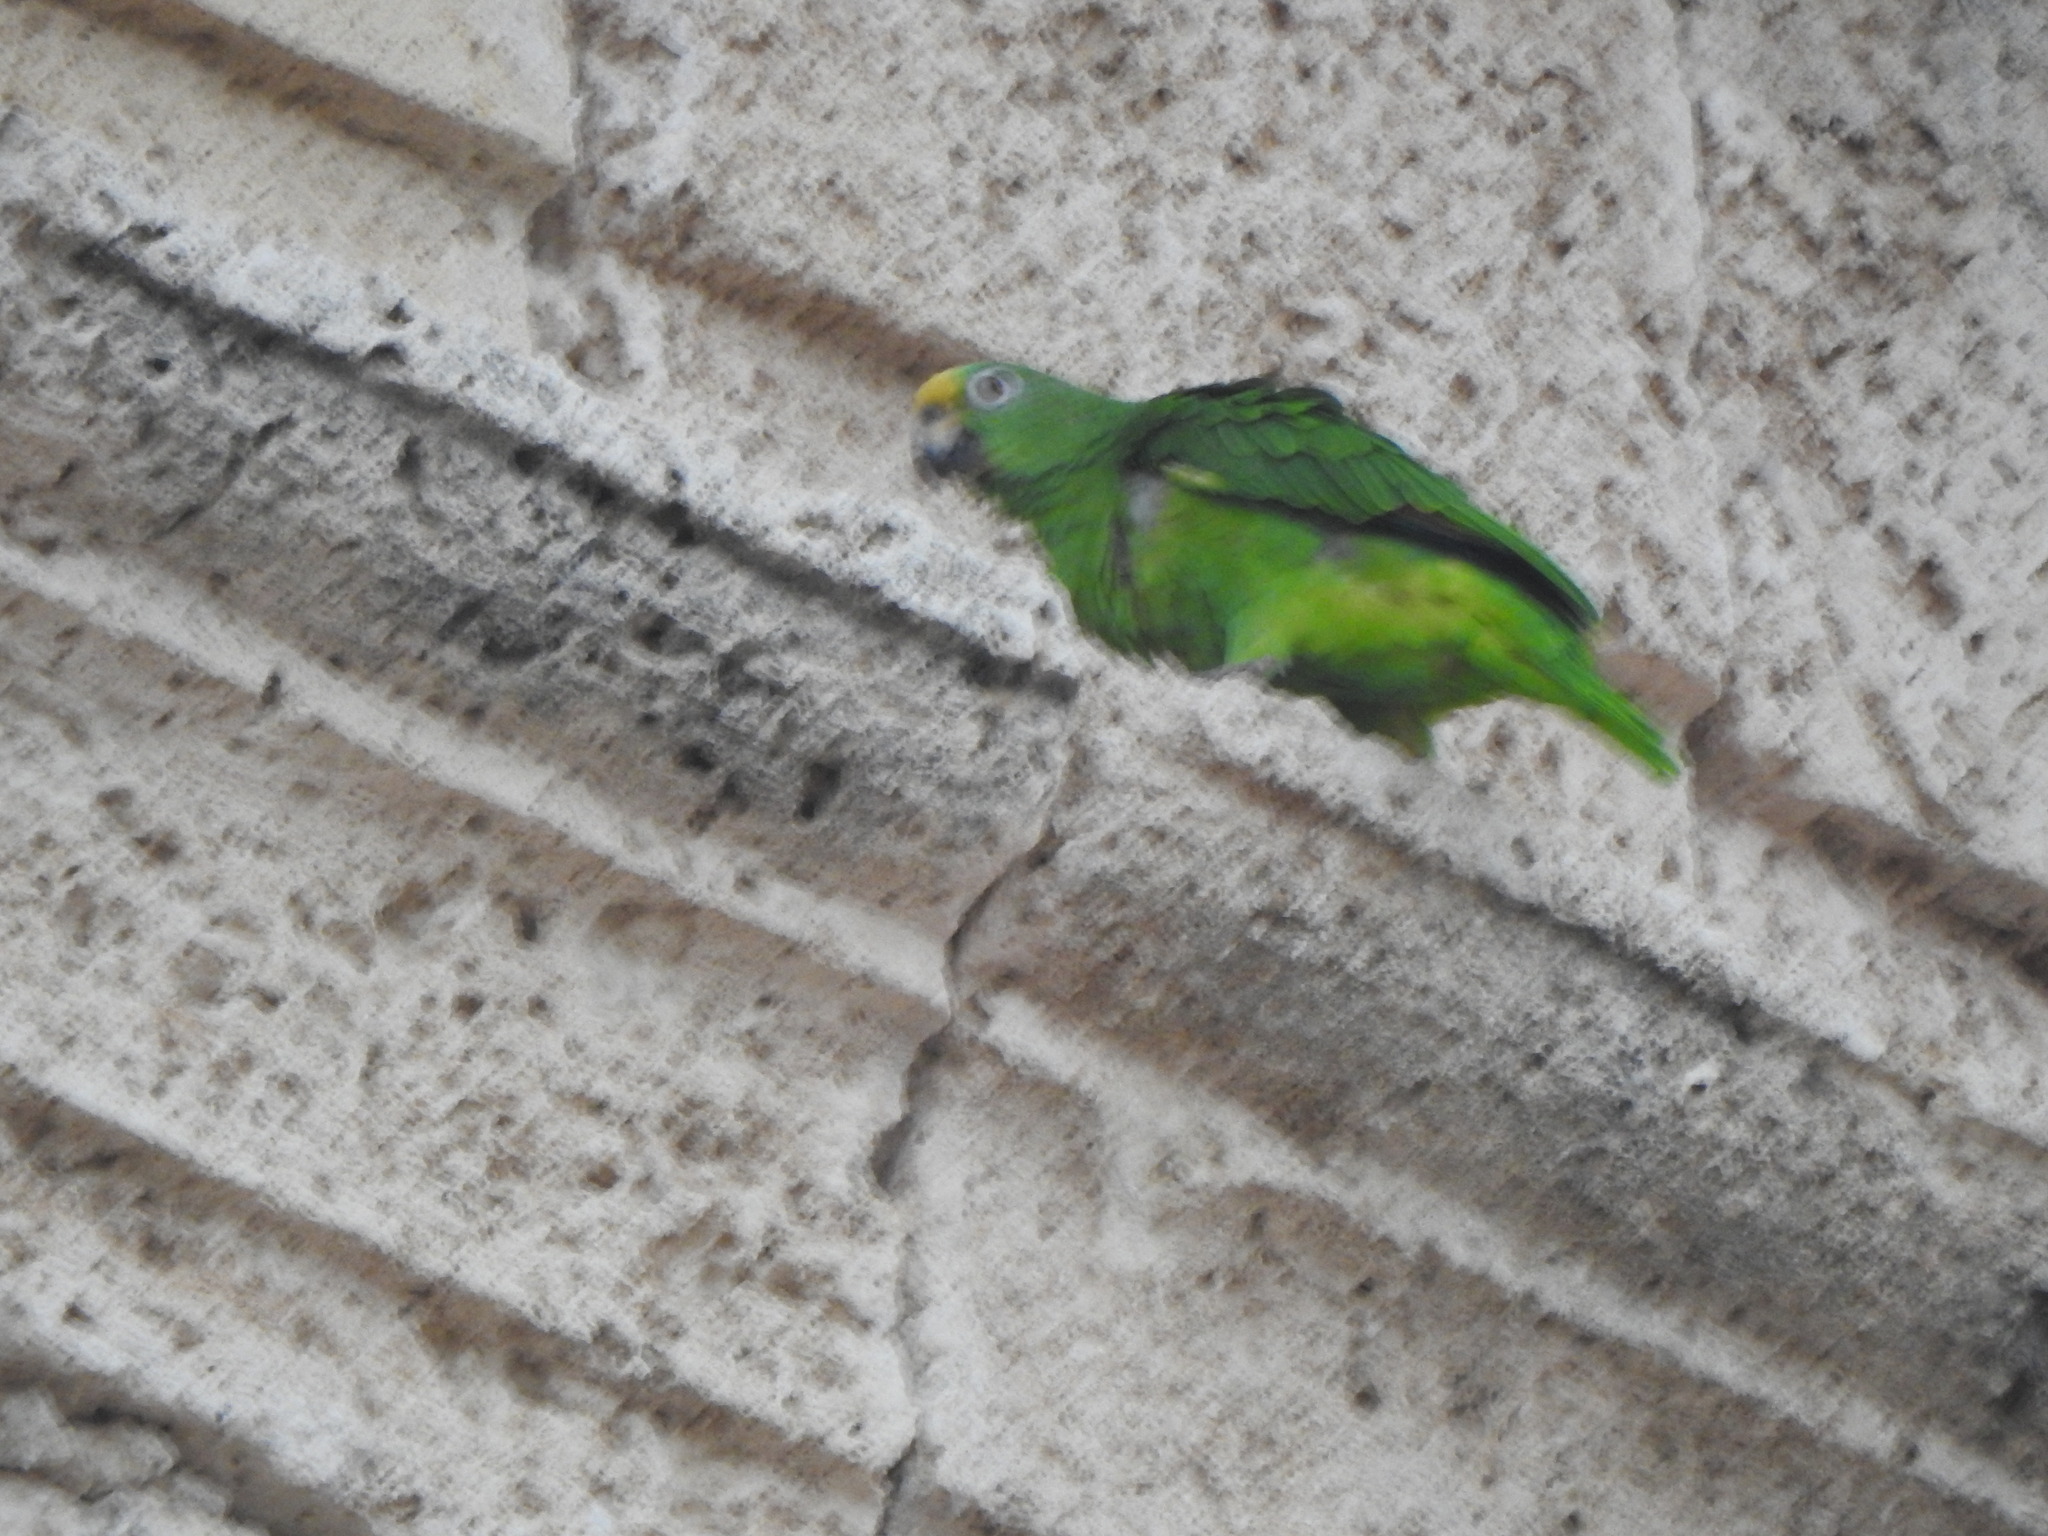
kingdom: Animalia
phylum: Chordata
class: Aves
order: Psittaciformes
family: Psittacidae
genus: Amazona
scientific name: Amazona ochrocephala
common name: Yellow-crowned amazon
